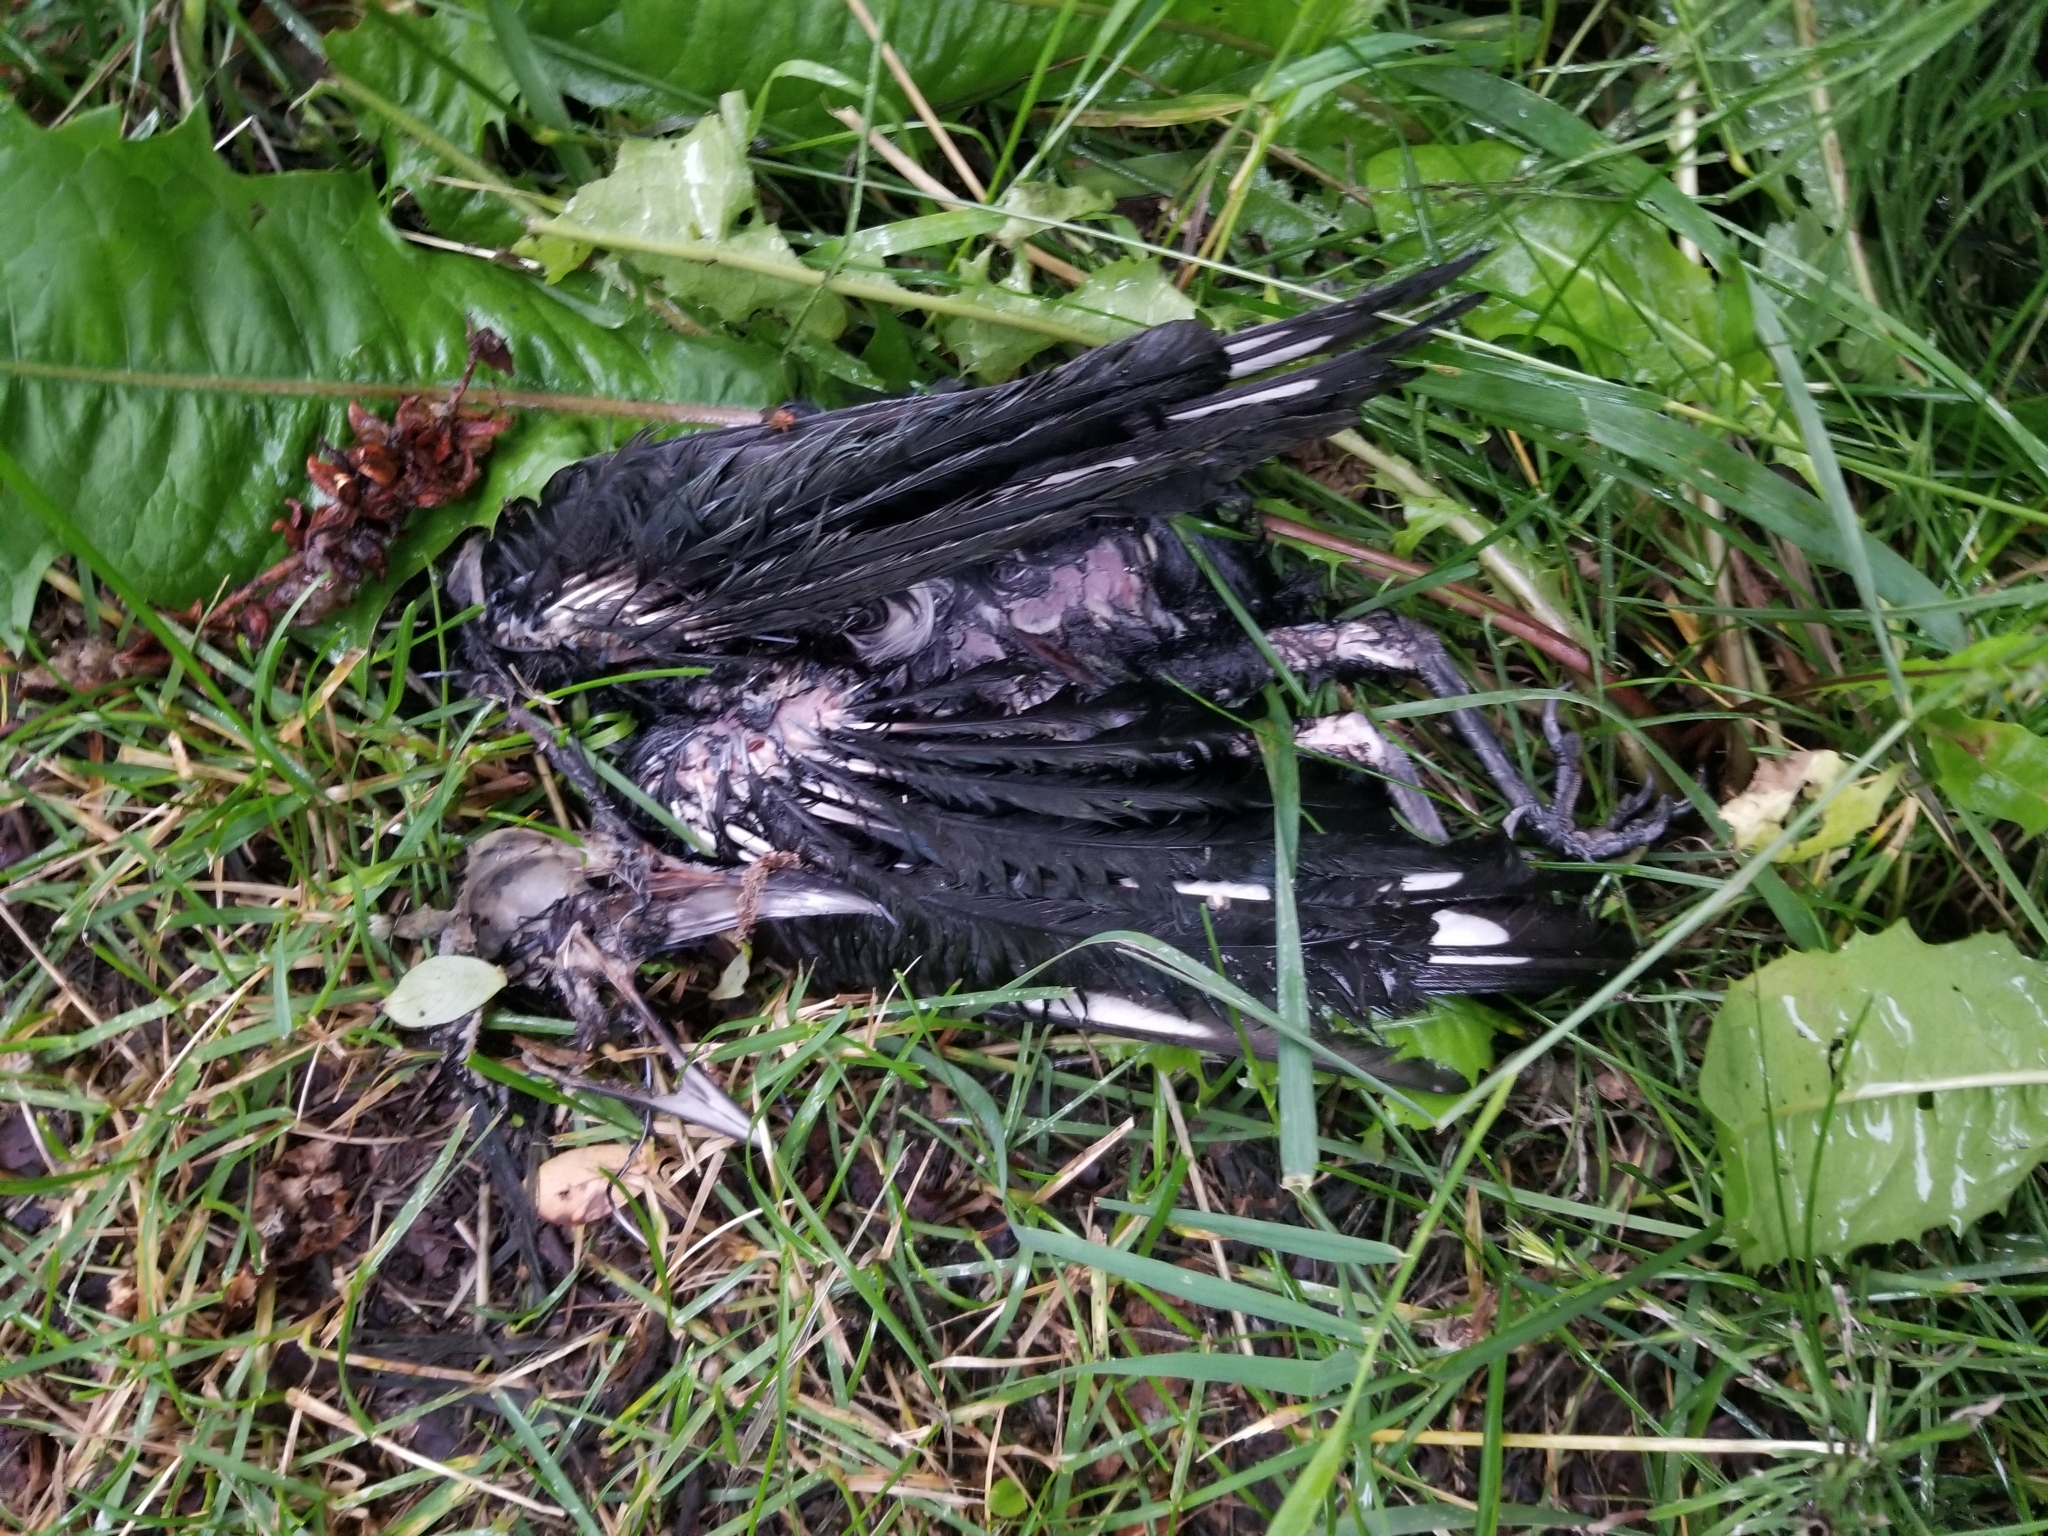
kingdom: Animalia
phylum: Chordata
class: Aves
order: Passeriformes
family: Corvidae
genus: Pica
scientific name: Pica hudsonia
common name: Black-billed magpie
